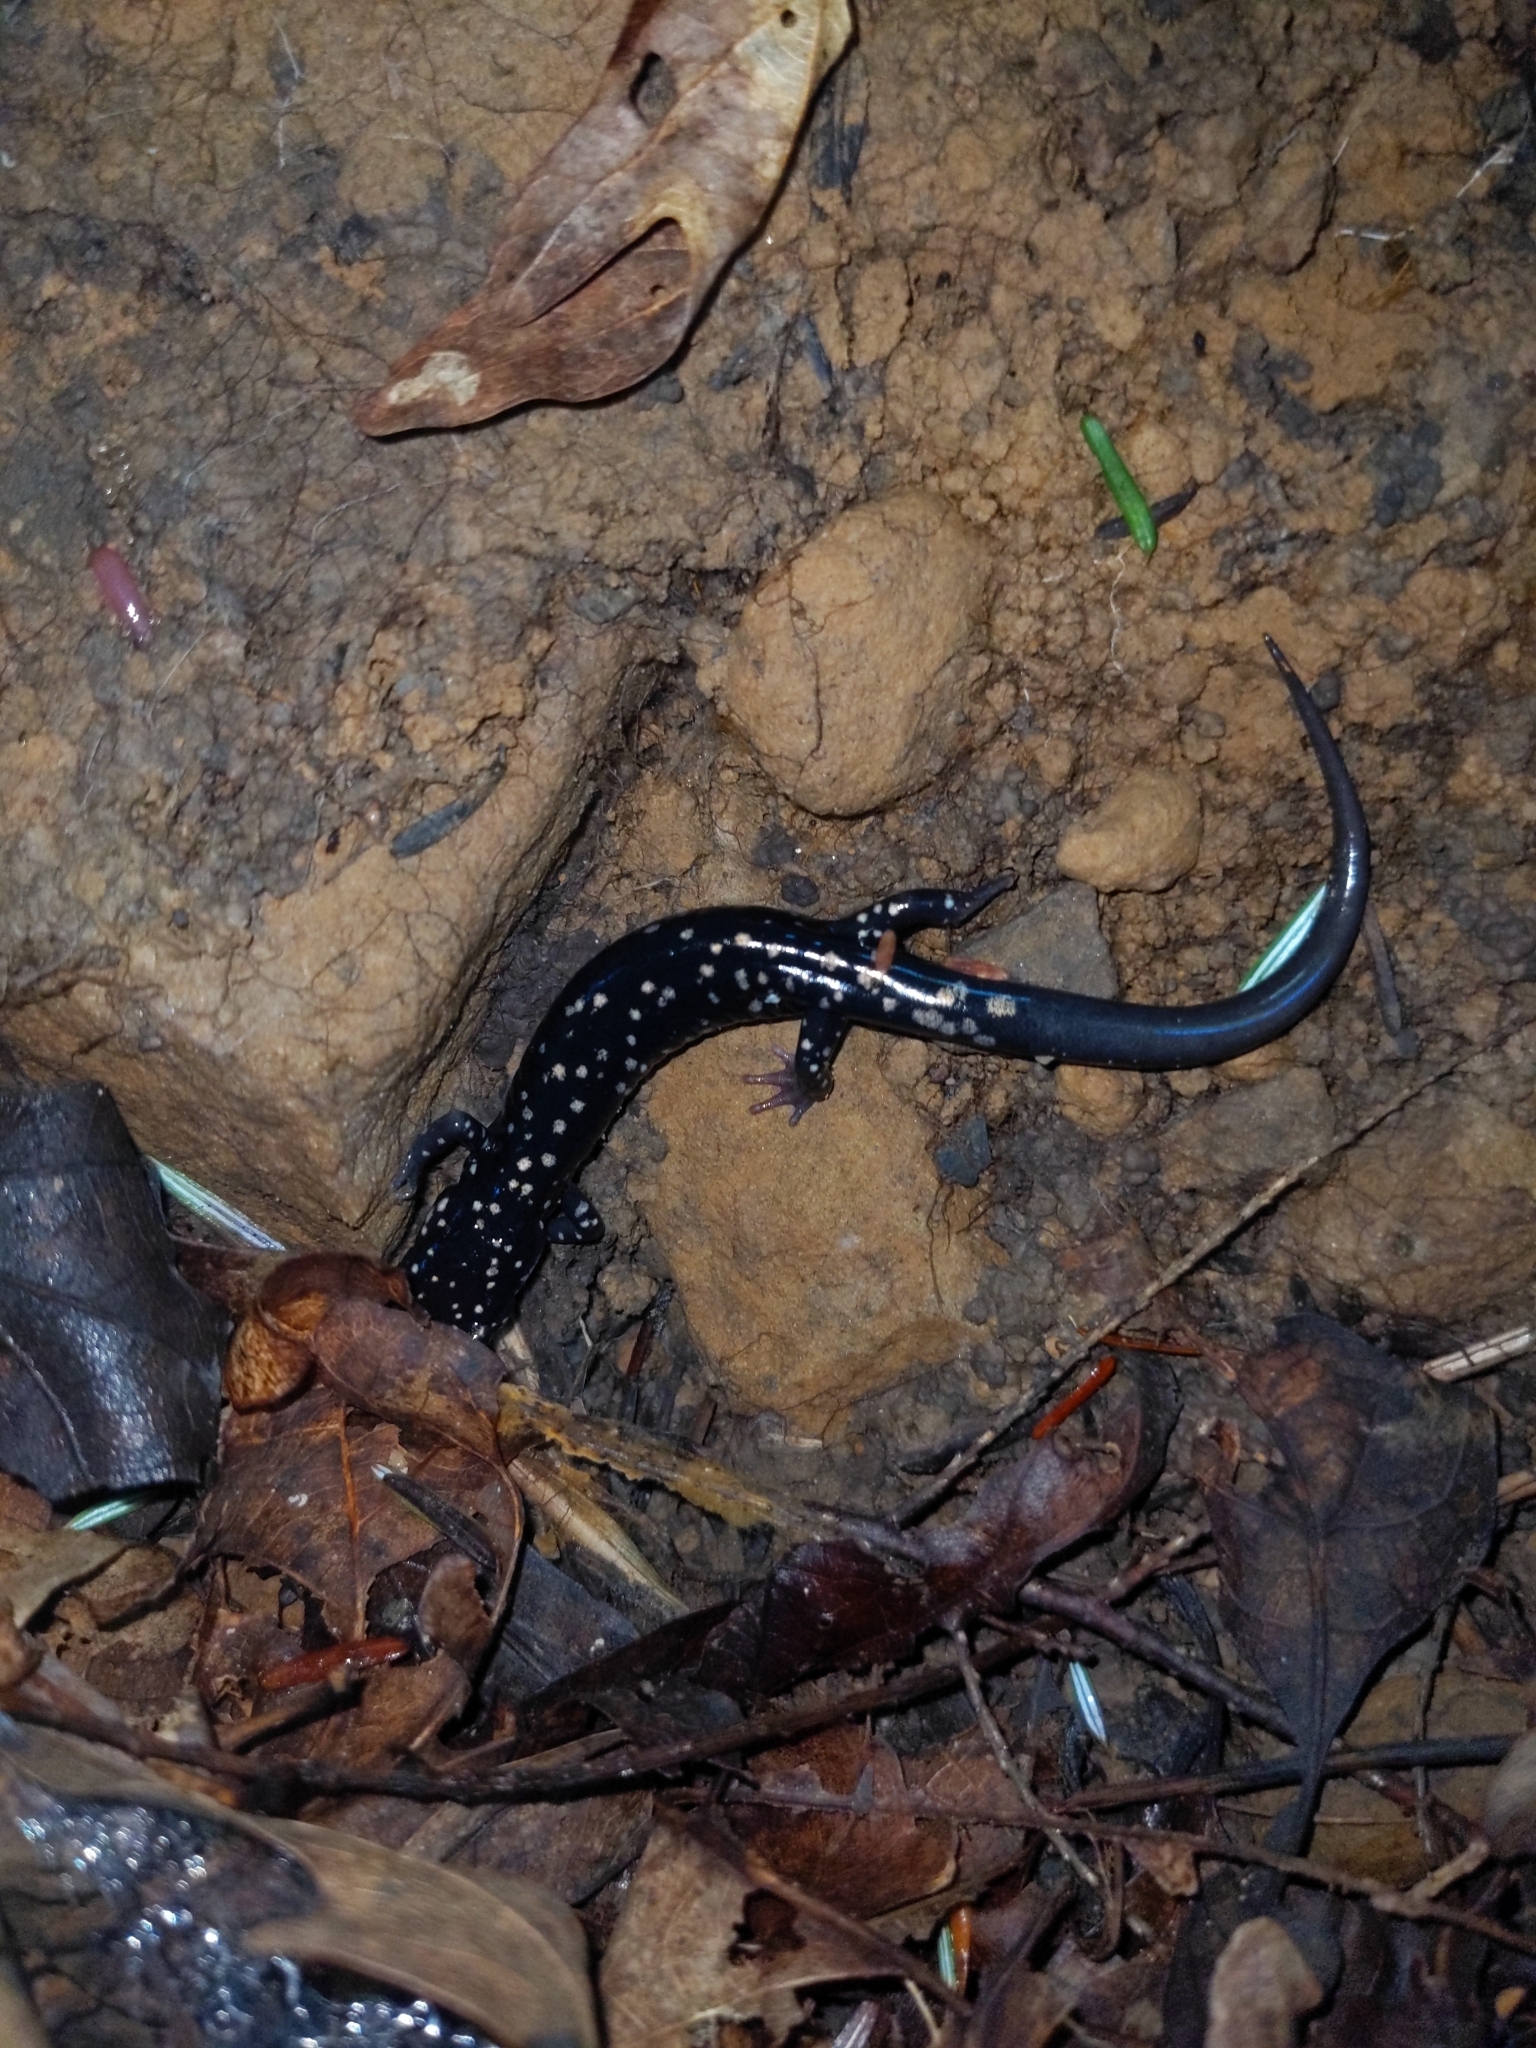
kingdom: Animalia
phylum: Chordata
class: Amphibia
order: Caudata
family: Plethodontidae
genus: Plethodon
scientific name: Plethodon glutinosus
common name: Northern slimy salamander
